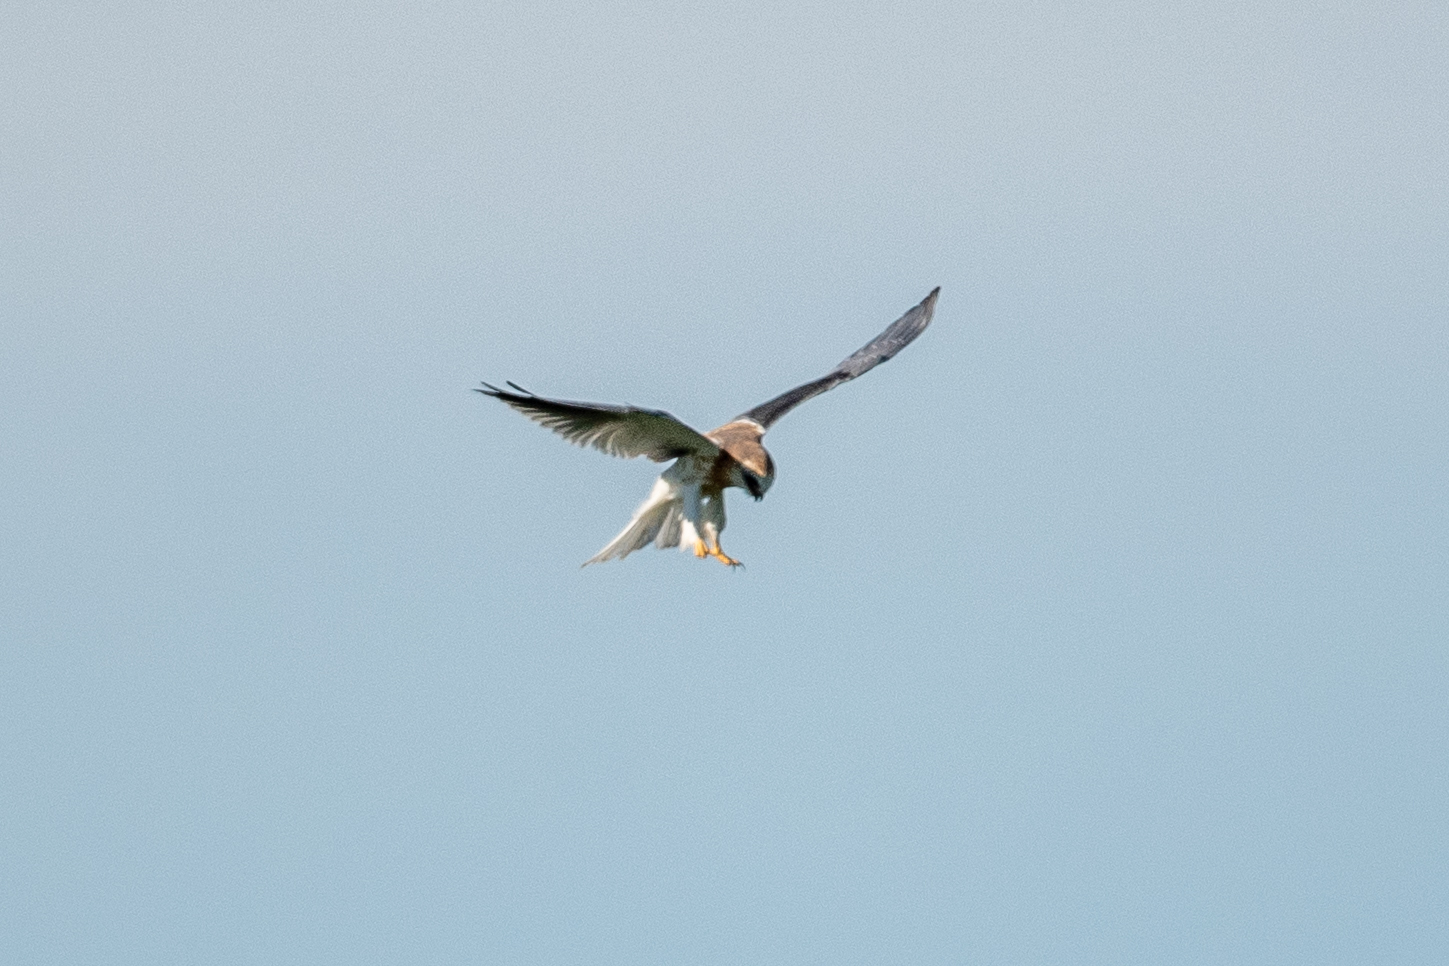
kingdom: Animalia
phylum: Chordata
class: Aves
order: Accipitriformes
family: Accipitridae
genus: Elanus
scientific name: Elanus leucurus
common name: White-tailed kite
